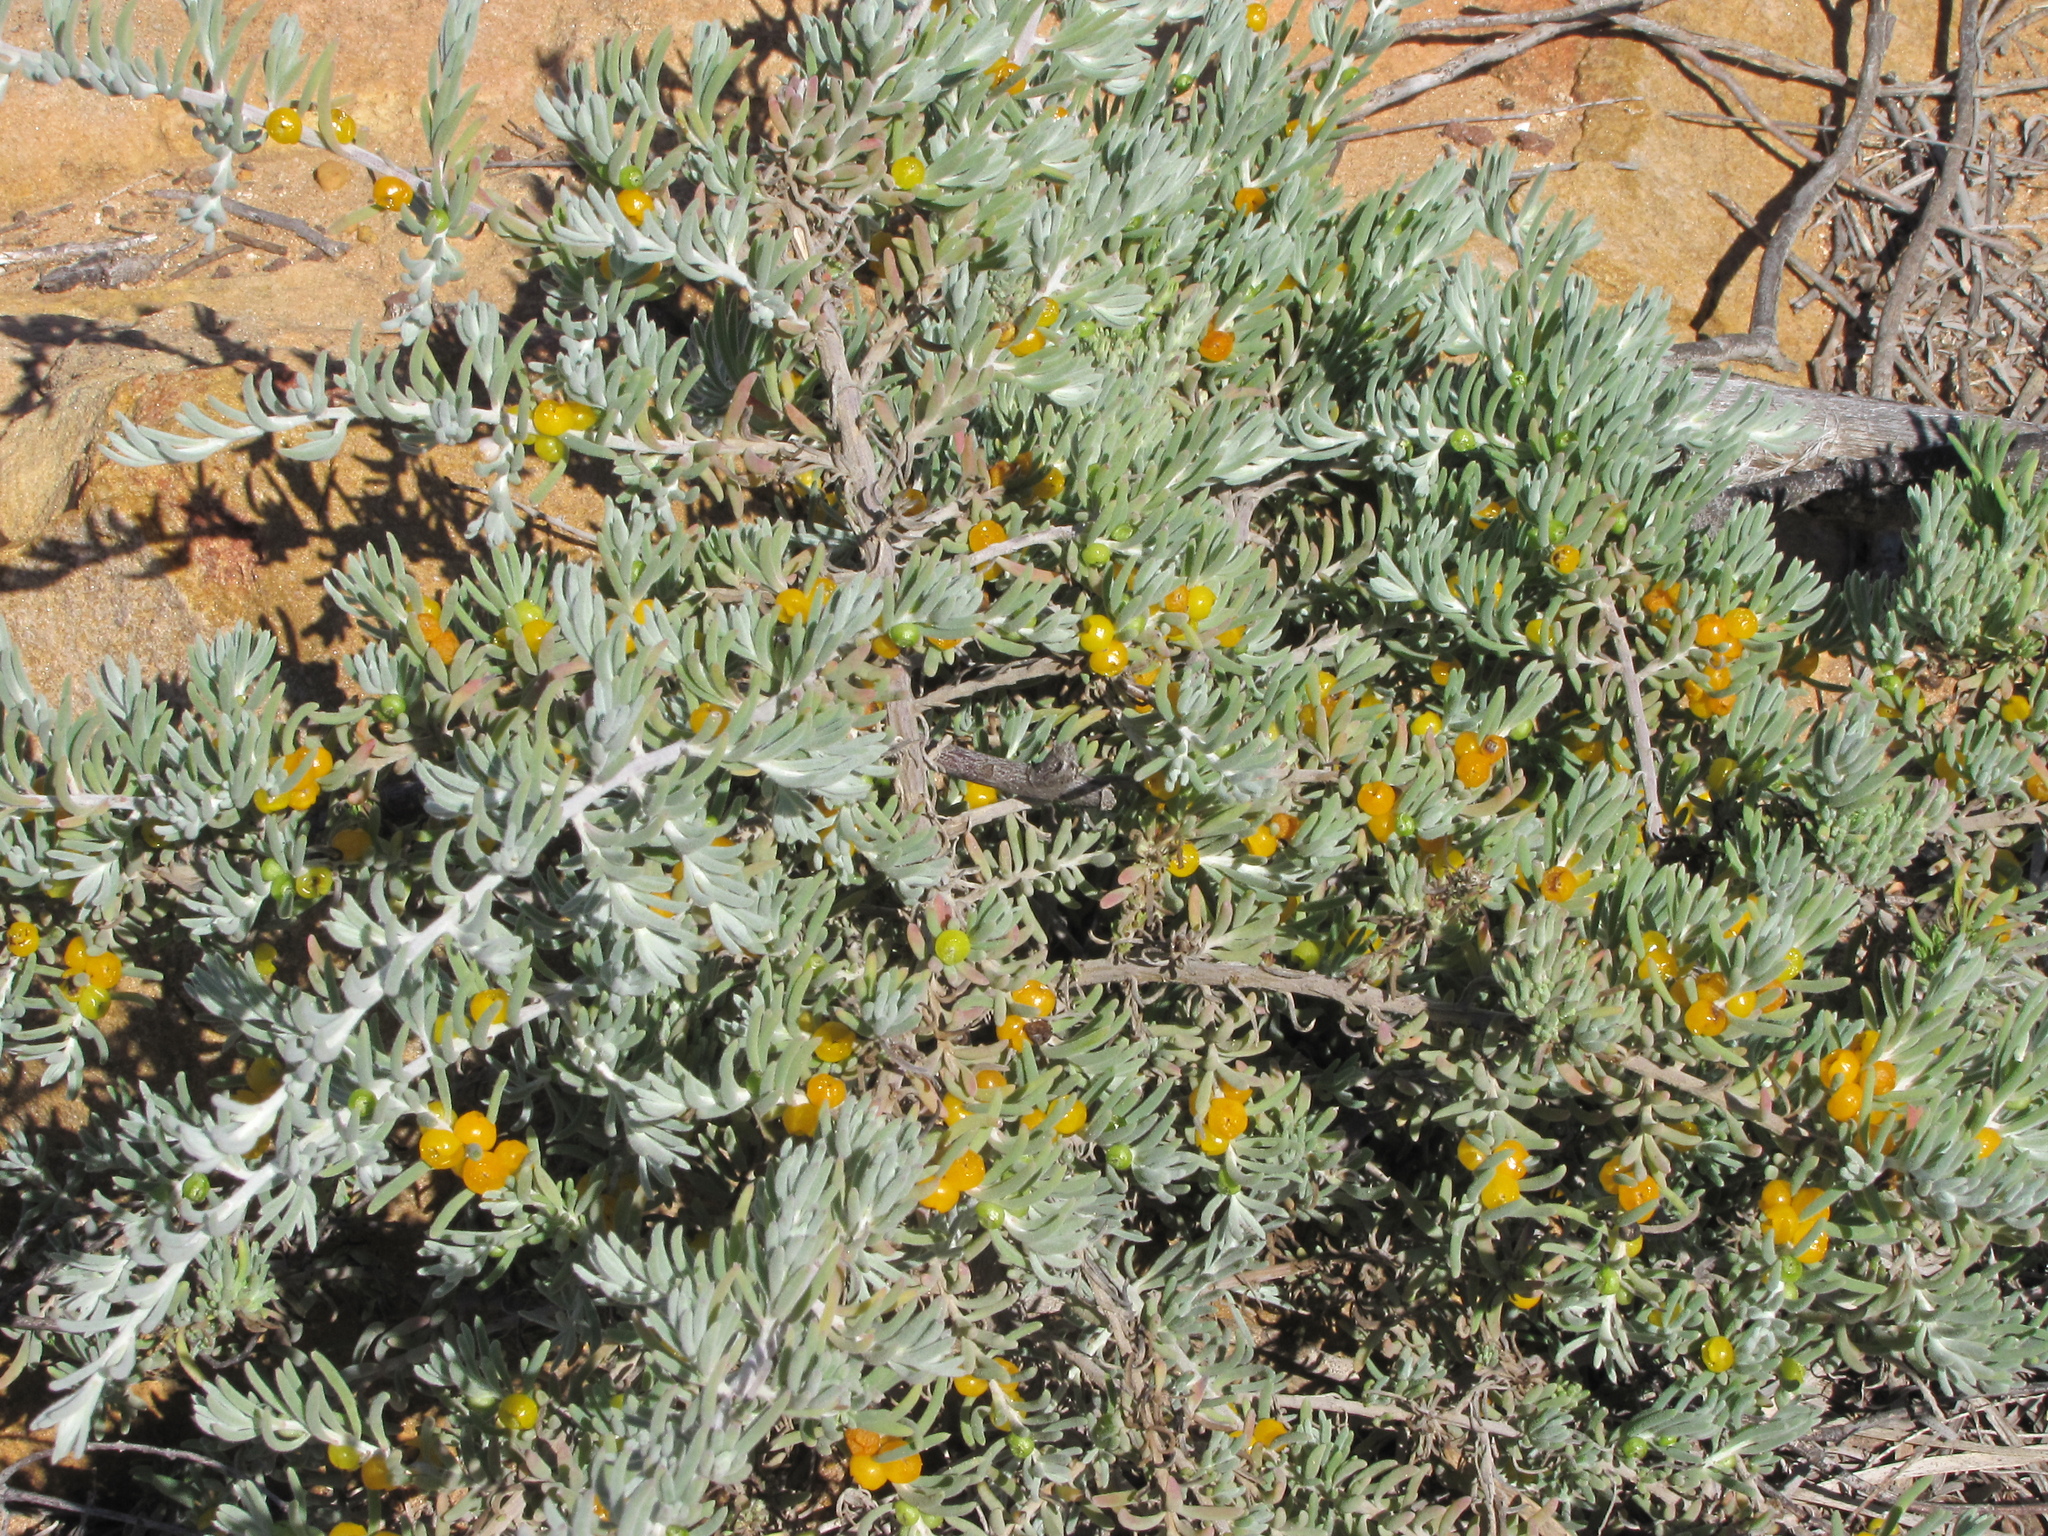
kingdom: Plantae
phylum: Tracheophyta
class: Magnoliopsida
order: Caryophyllales
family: Amaranthaceae
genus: Enchylaena
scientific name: Enchylaena tomentosa
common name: Ruby saltbush
